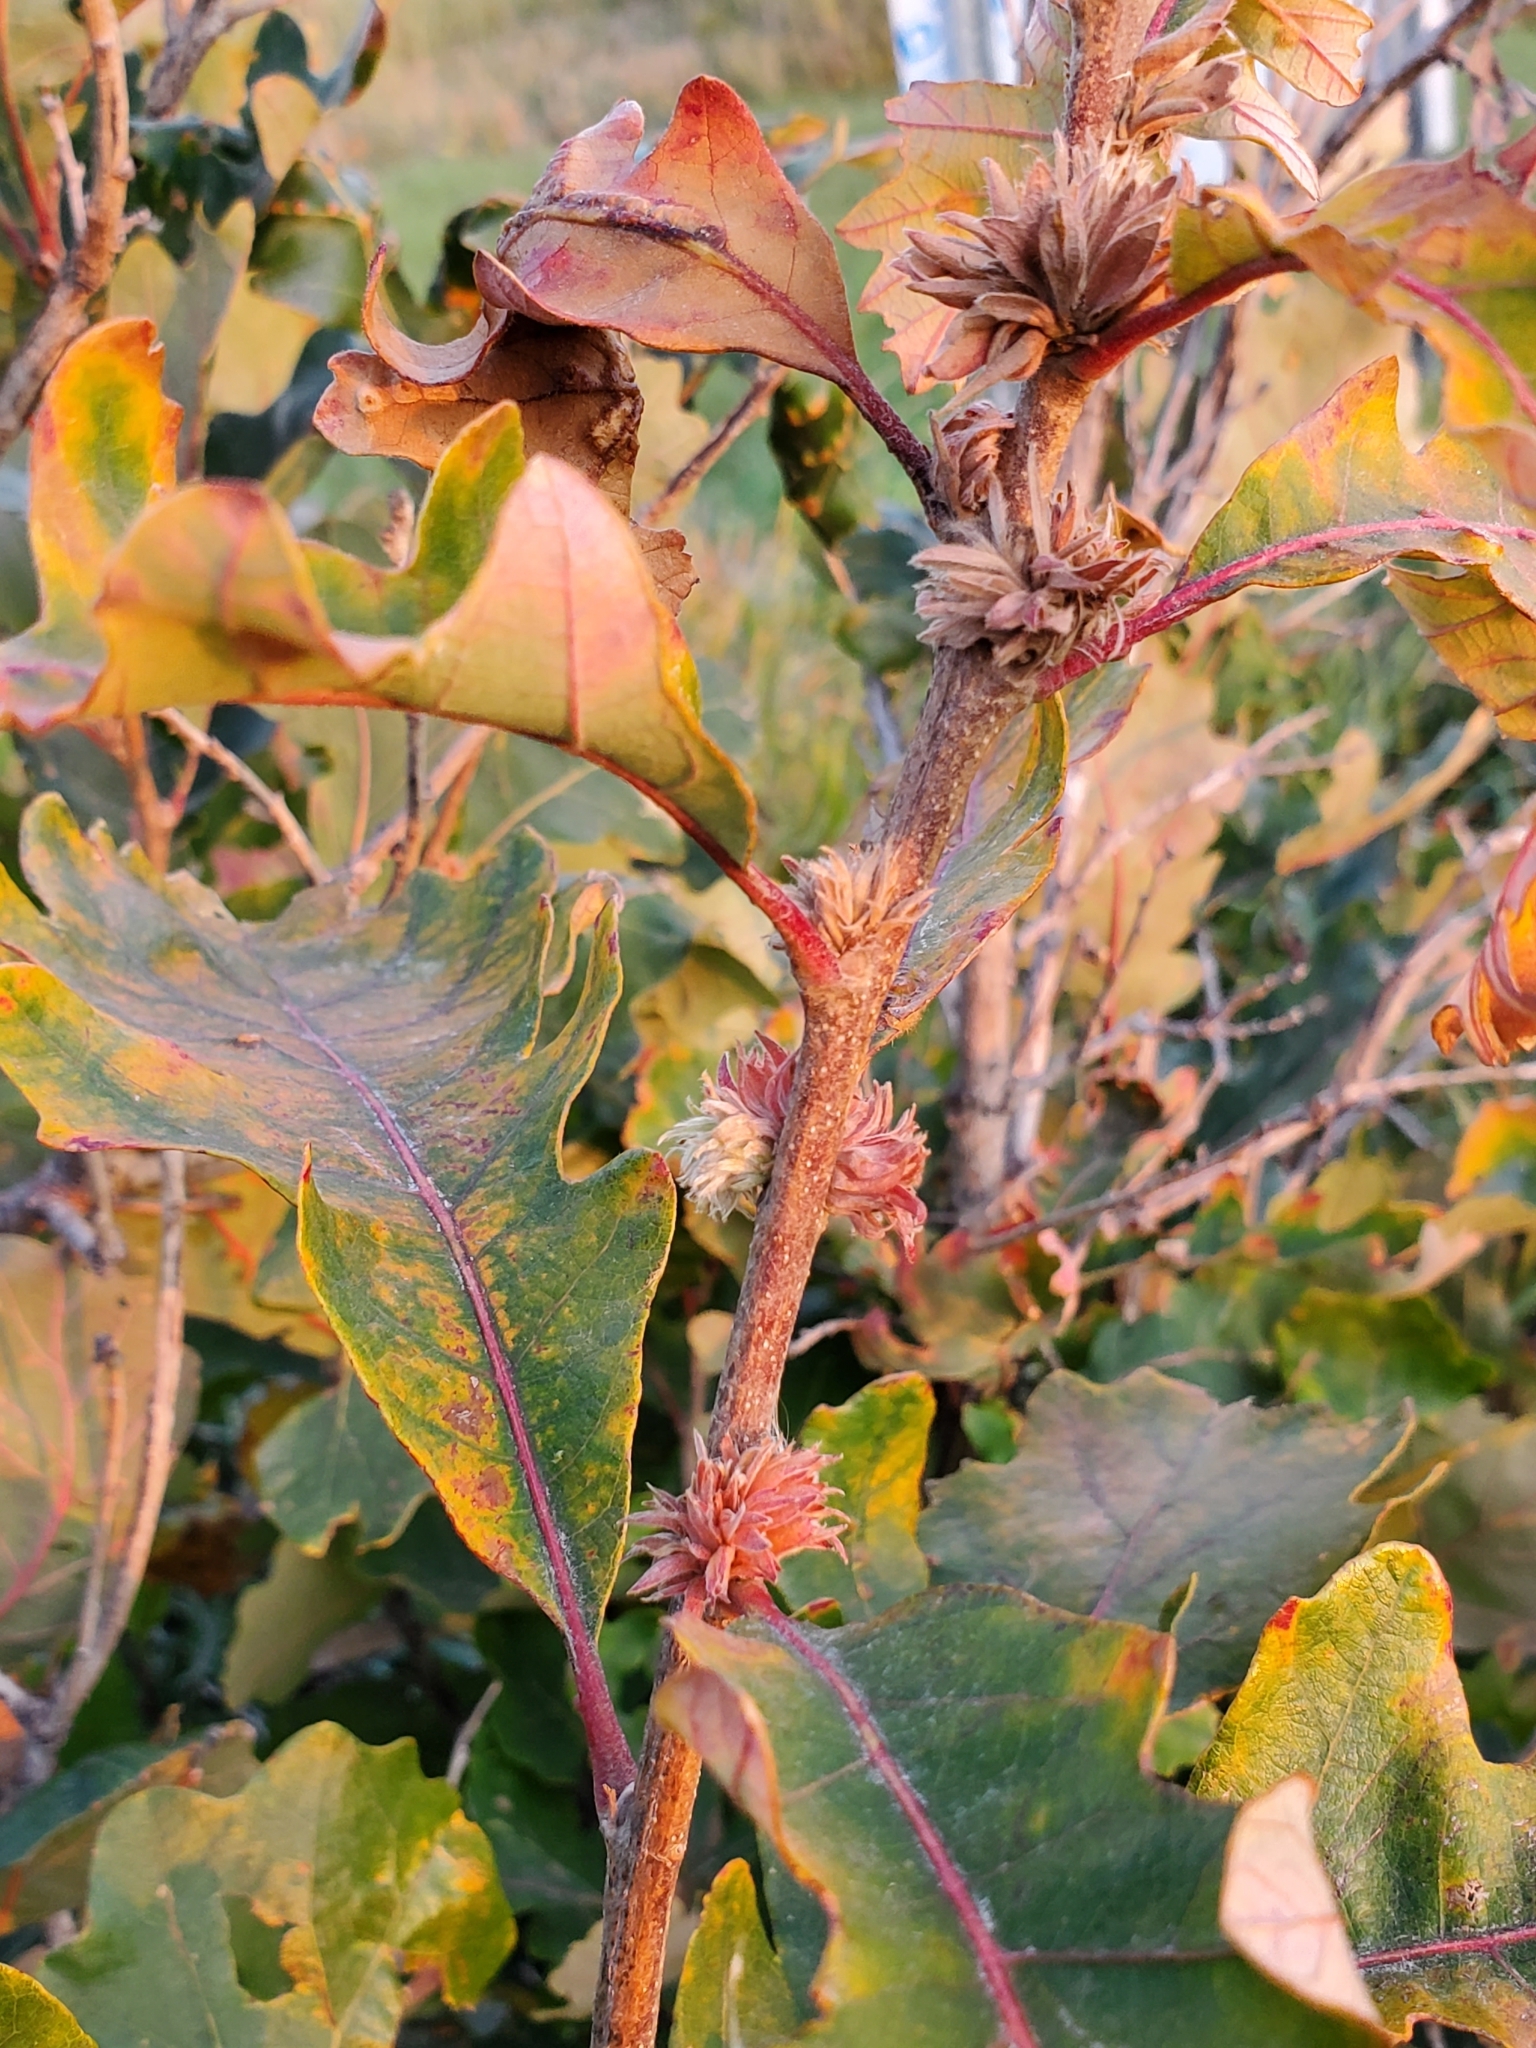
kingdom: Animalia
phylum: Arthropoda
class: Insecta
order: Hymenoptera
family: Cynipidae
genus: Andricus
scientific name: Andricus
